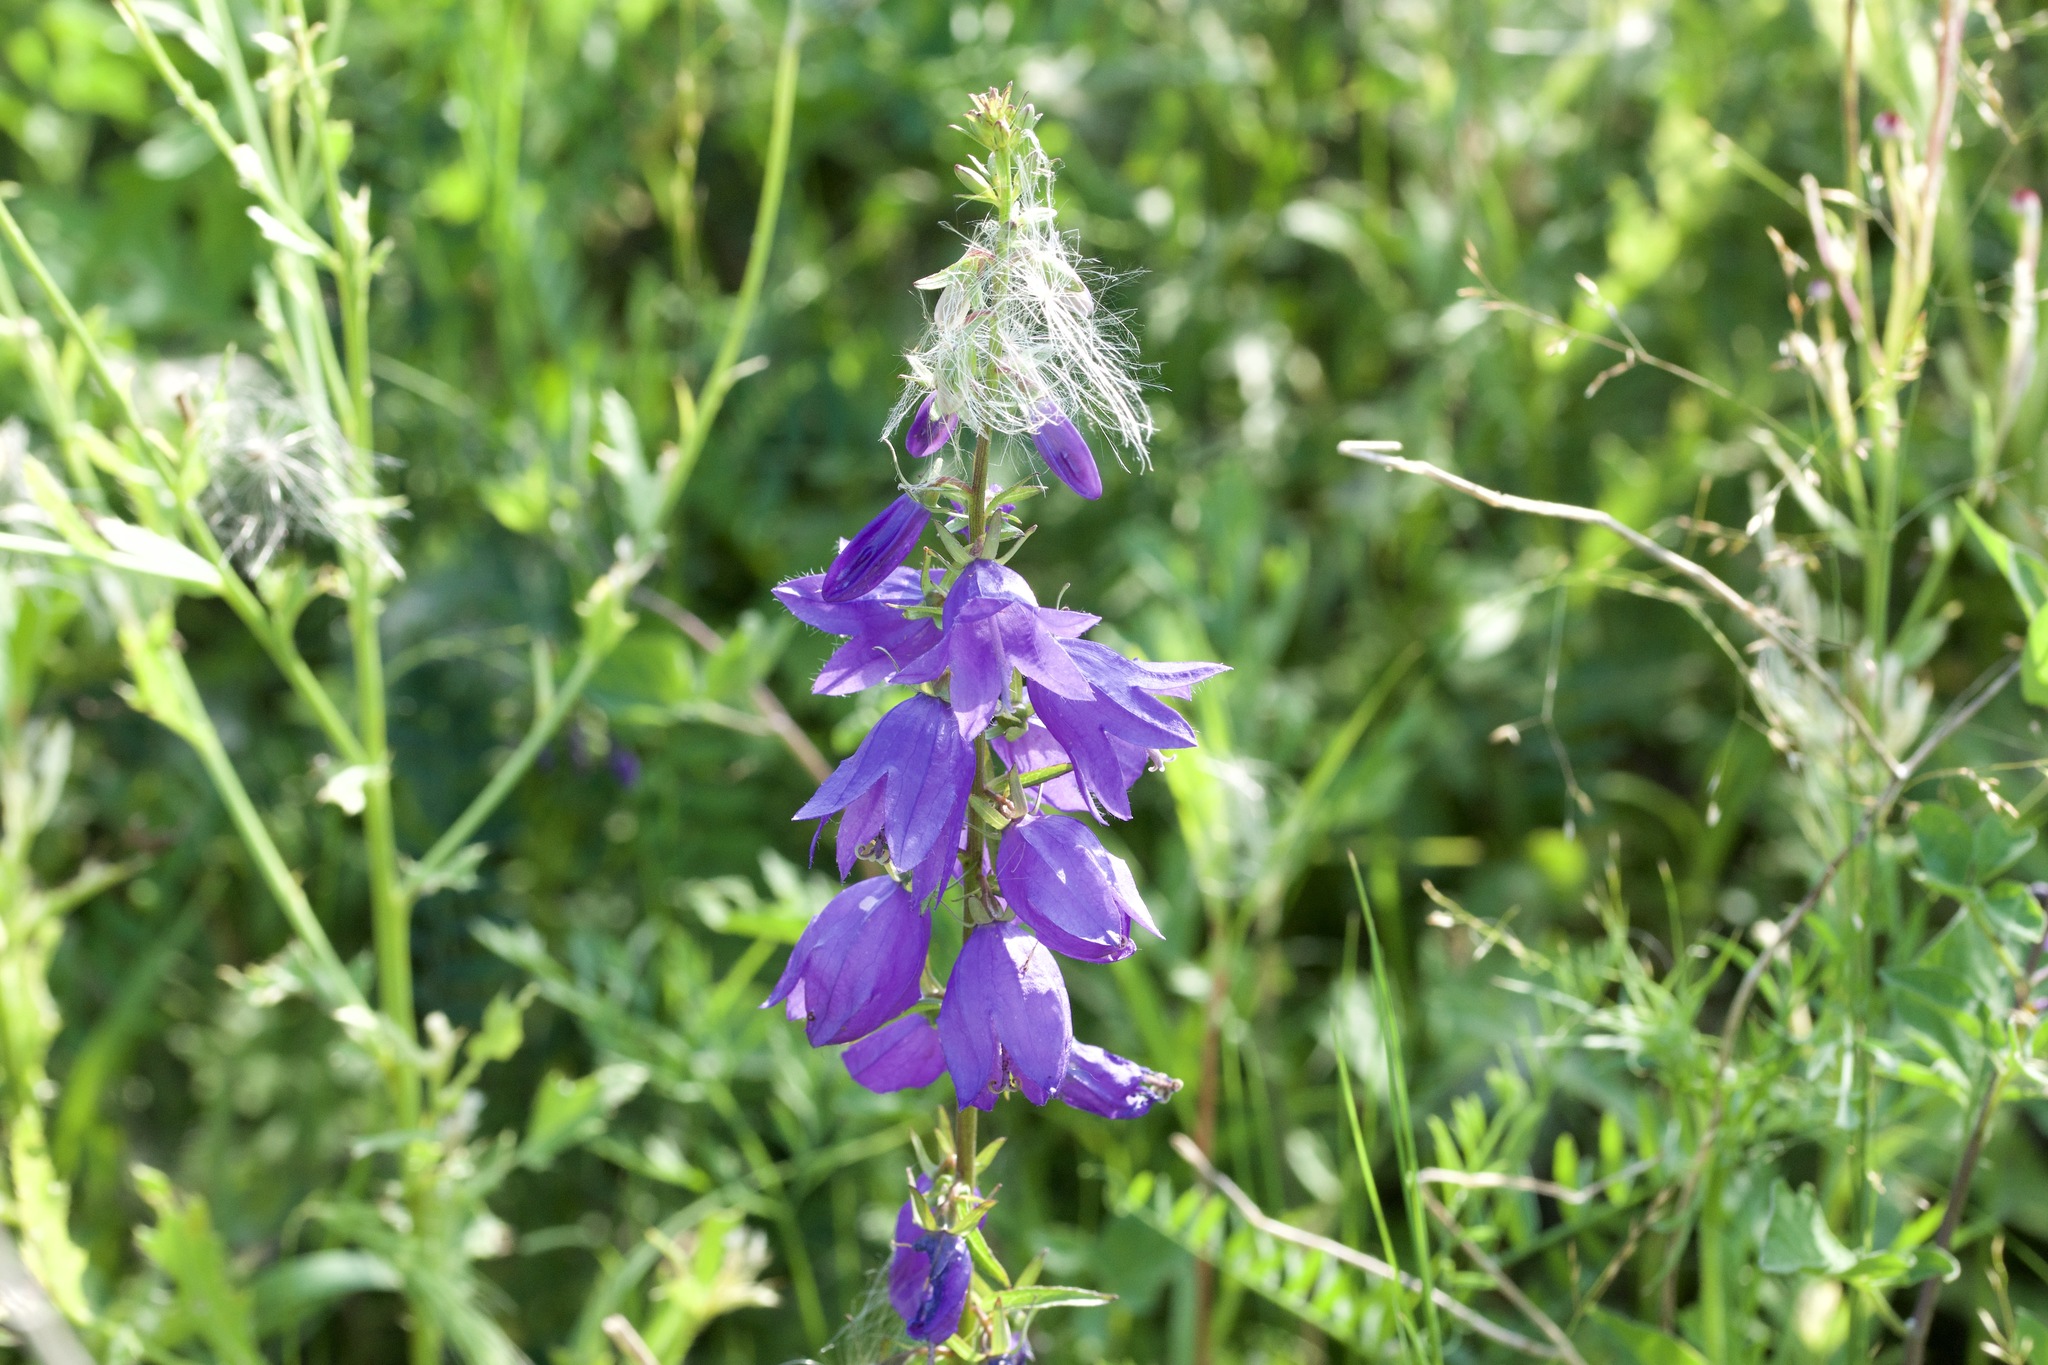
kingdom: Plantae
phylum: Tracheophyta
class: Magnoliopsida
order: Asterales
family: Campanulaceae
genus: Campanula
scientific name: Campanula rapunculoides
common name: Creeping bellflower
